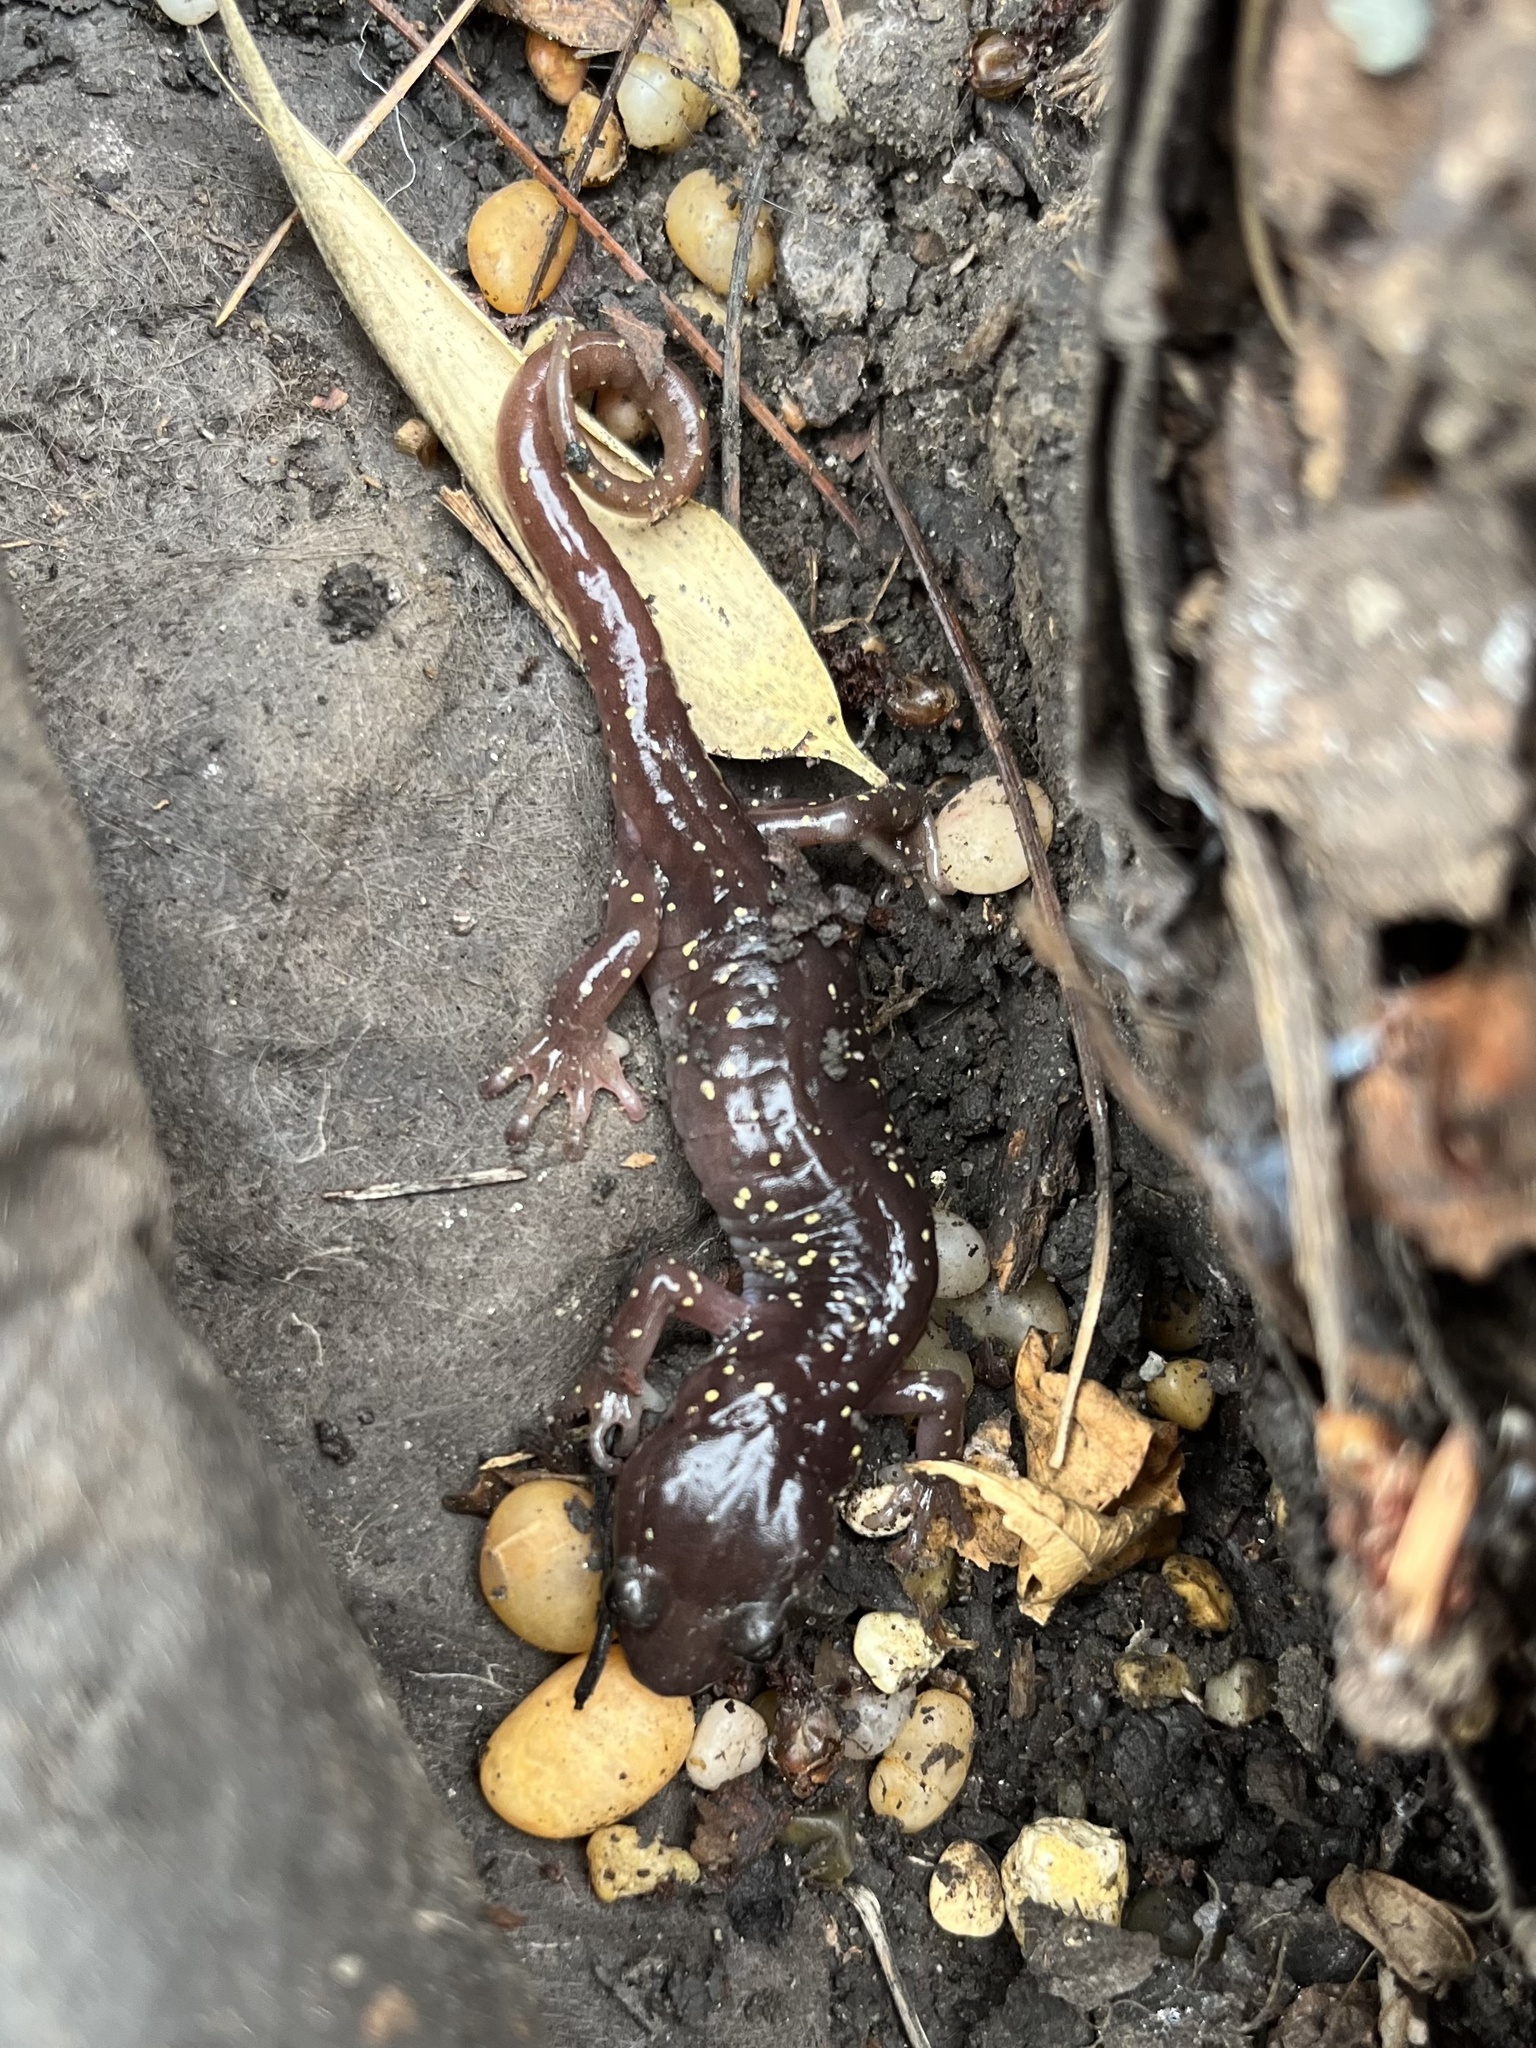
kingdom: Animalia
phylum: Chordata
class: Amphibia
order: Caudata
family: Plethodontidae
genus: Aneides
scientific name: Aneides lugubris
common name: Arboreal salamander
